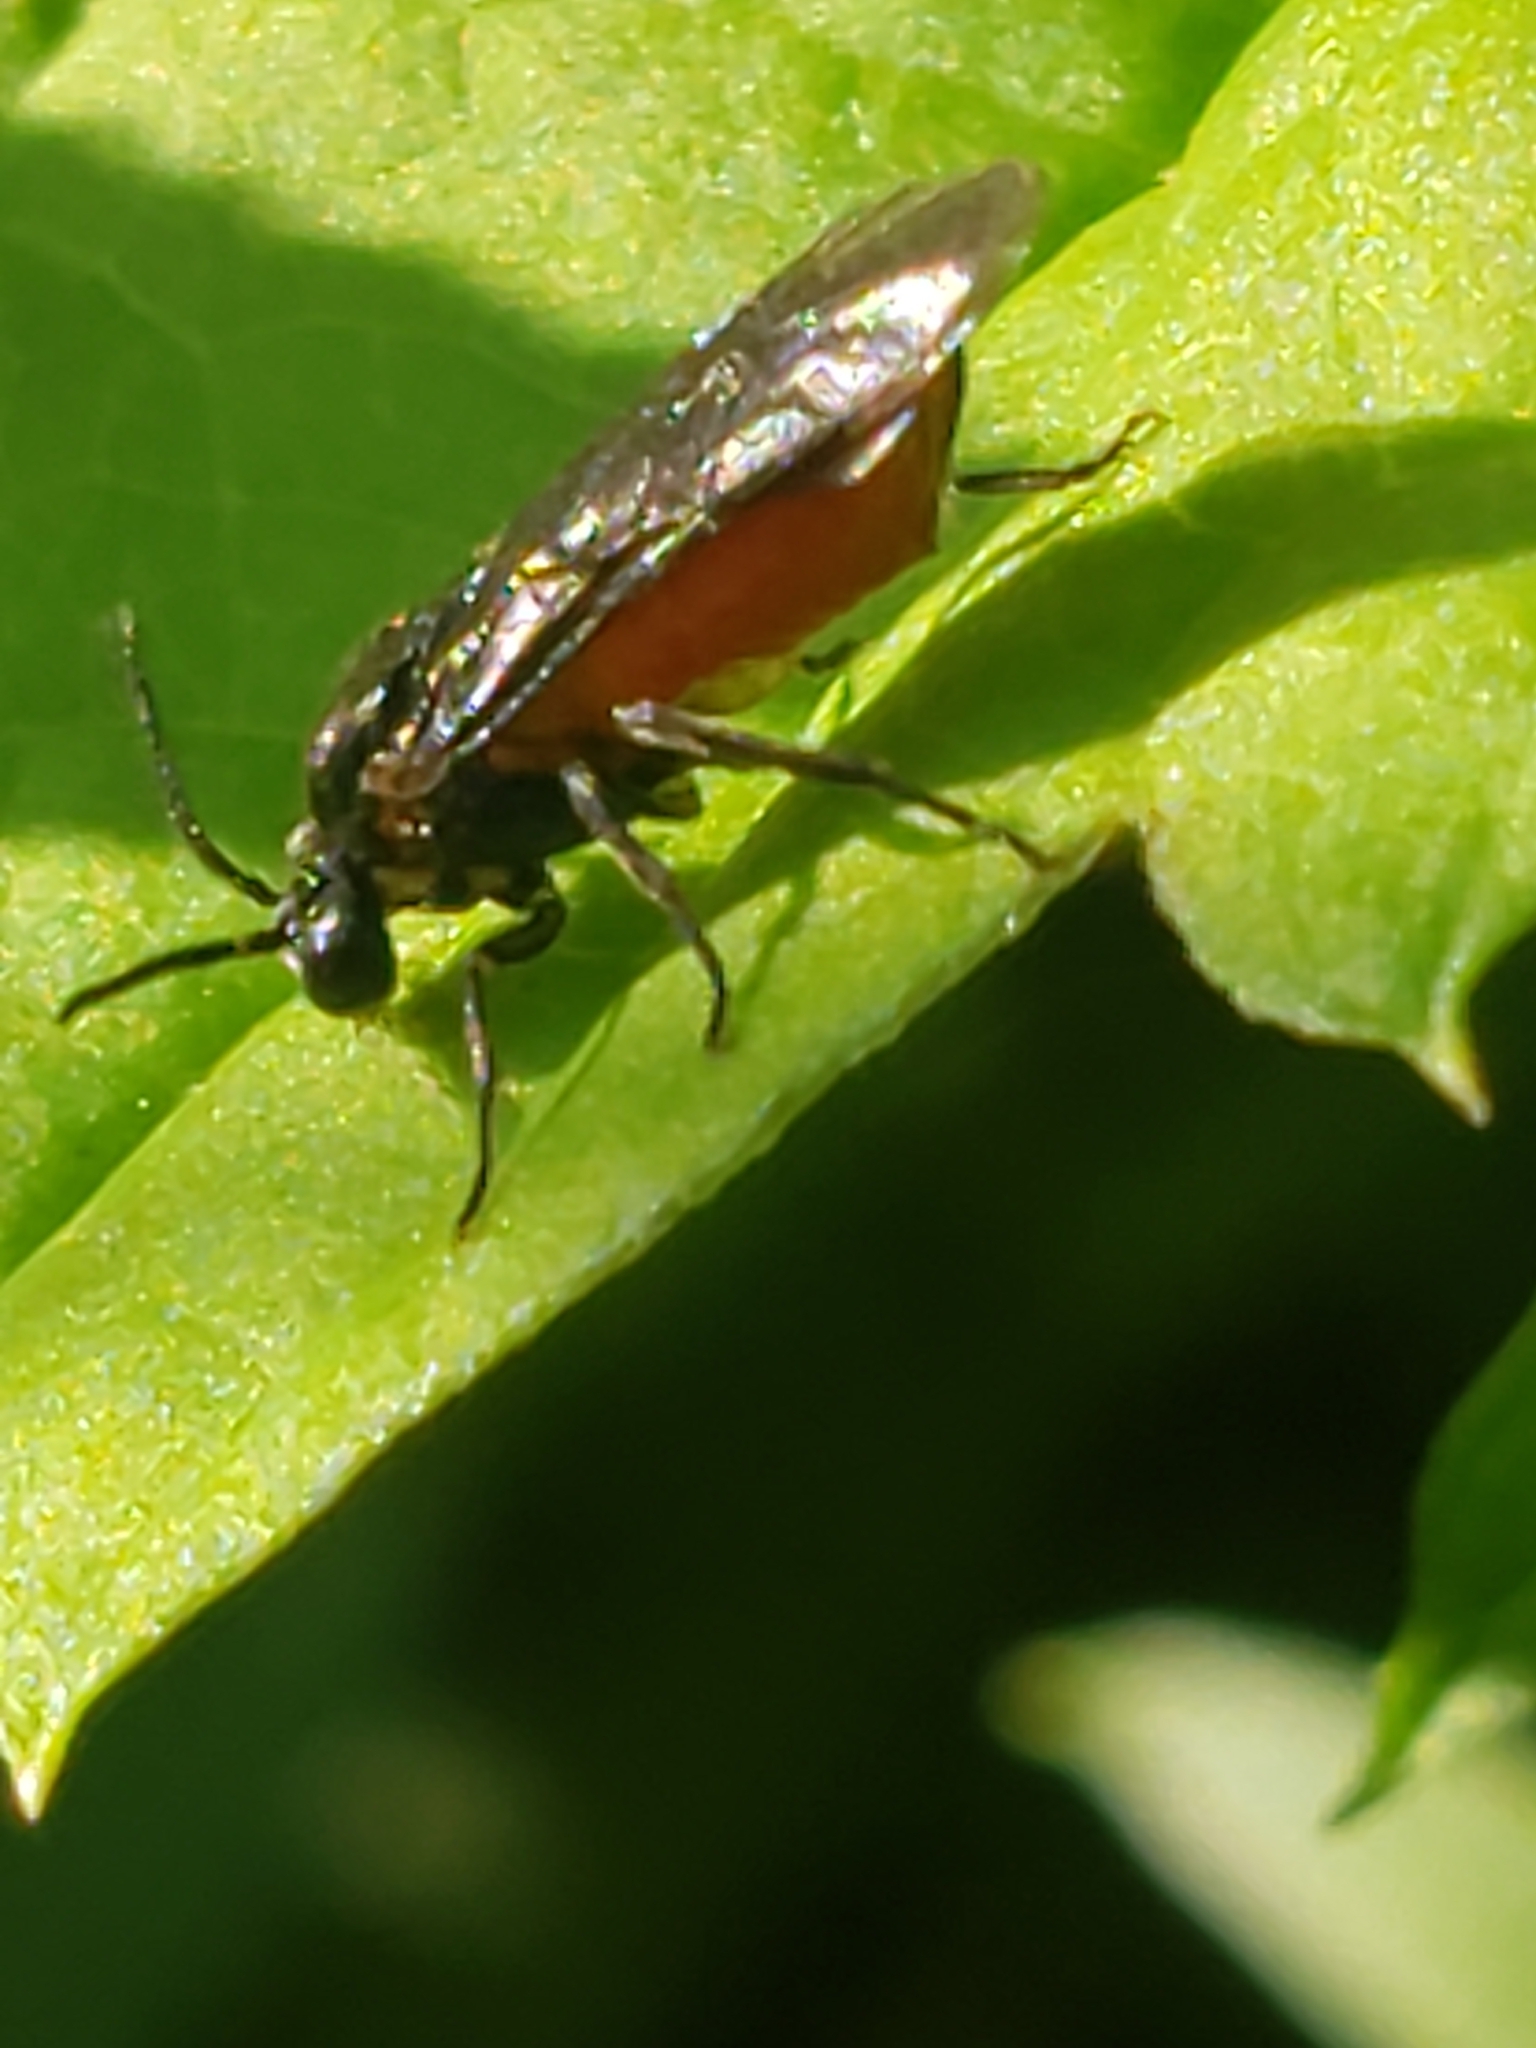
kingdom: Animalia
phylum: Arthropoda
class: Insecta
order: Hymenoptera
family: Argidae
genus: Sphacophilus
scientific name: Sphacophilus cellularis
